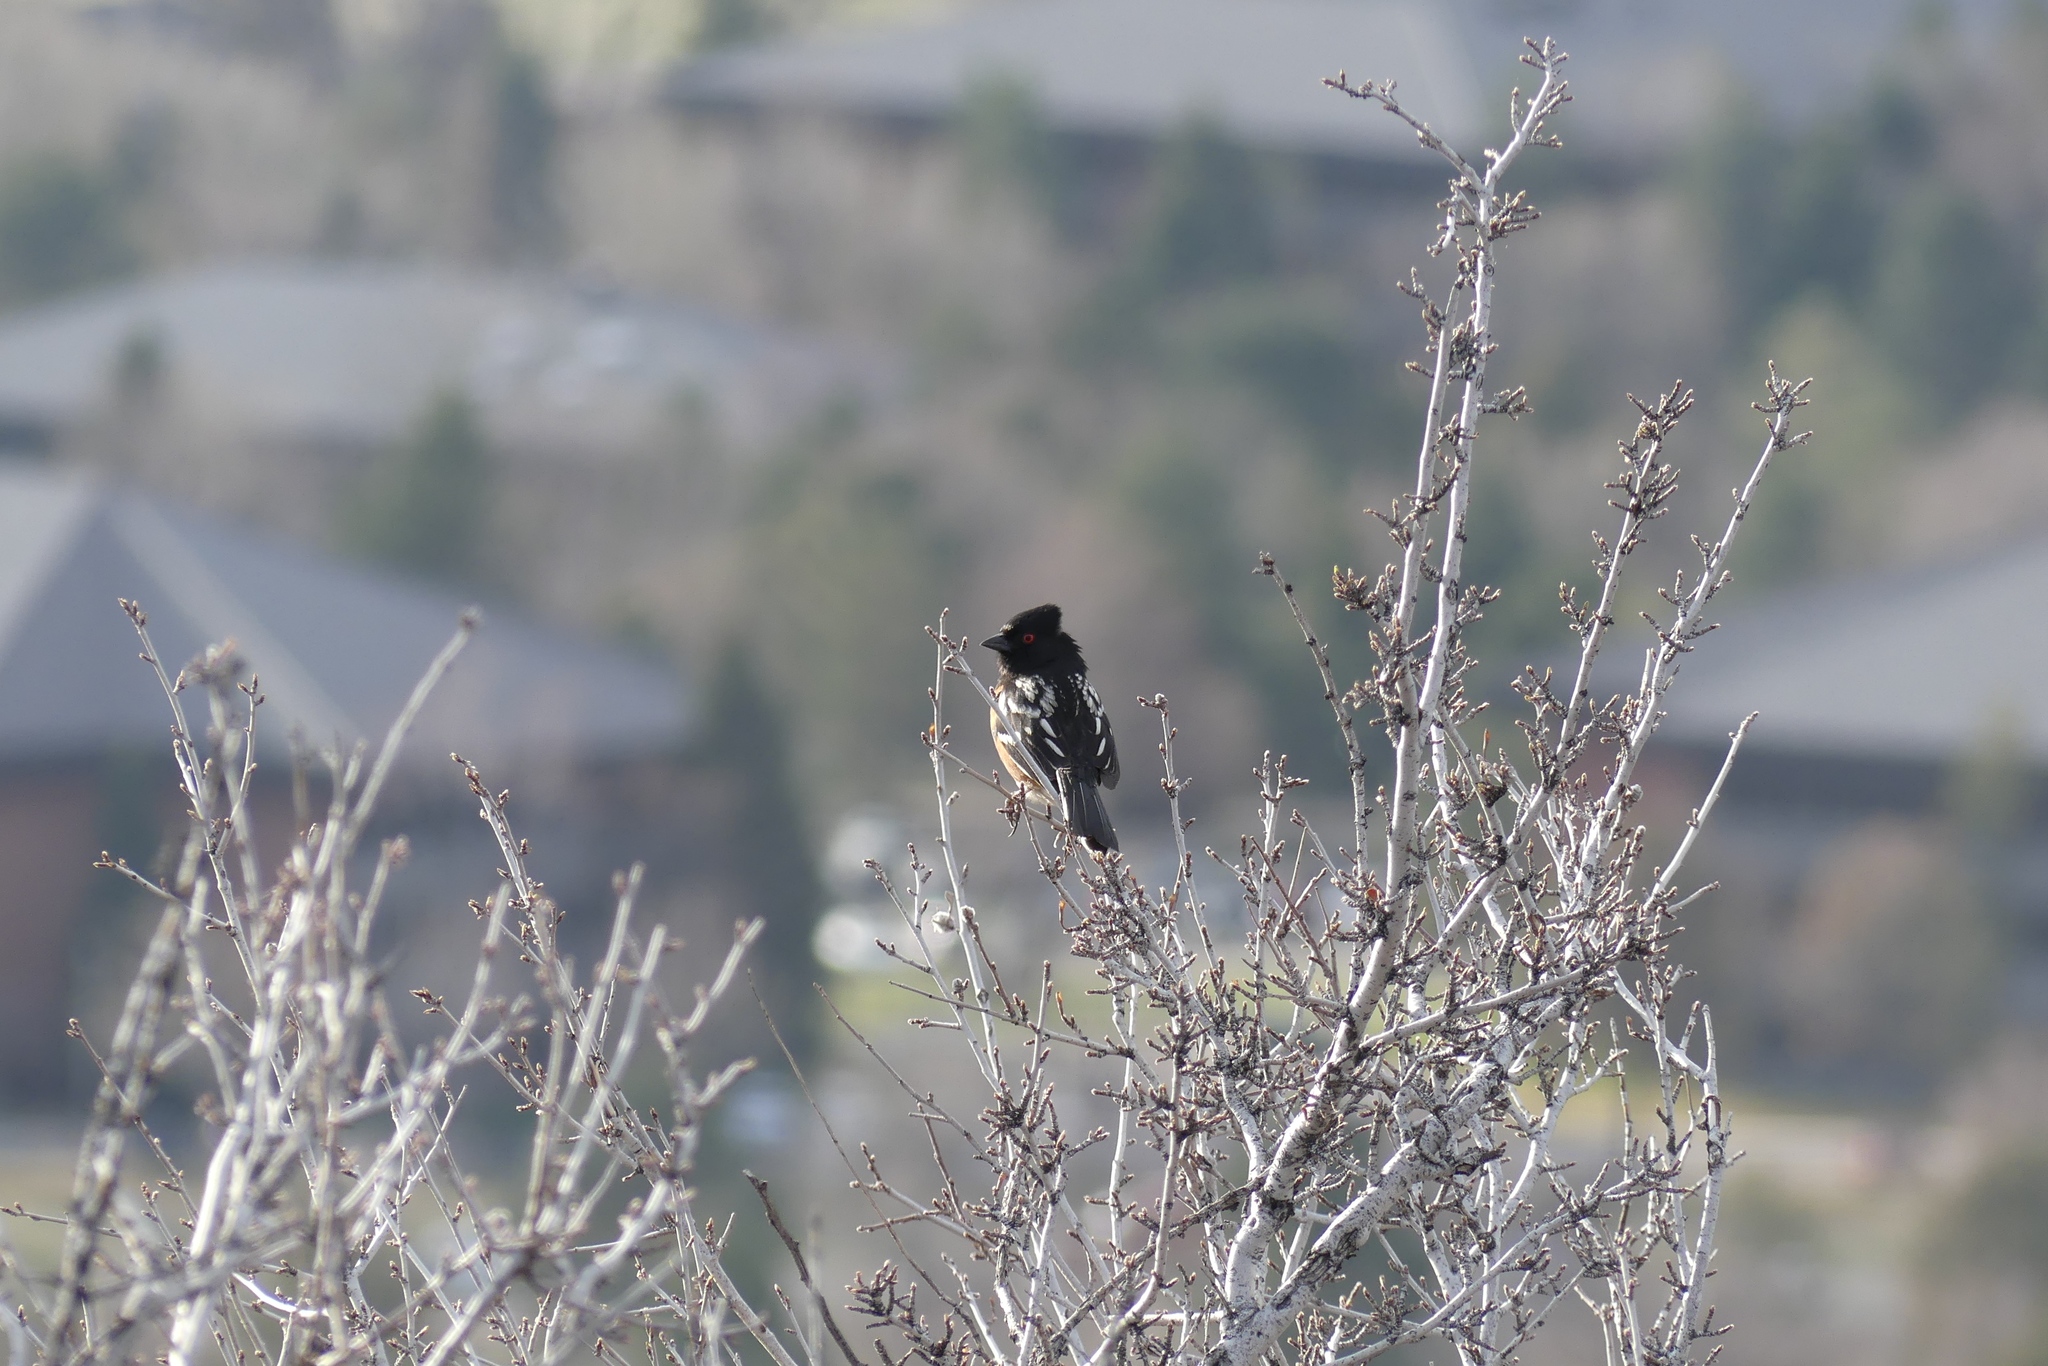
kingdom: Animalia
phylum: Chordata
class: Aves
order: Passeriformes
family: Passerellidae
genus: Pipilo
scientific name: Pipilo maculatus
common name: Spotted towhee
